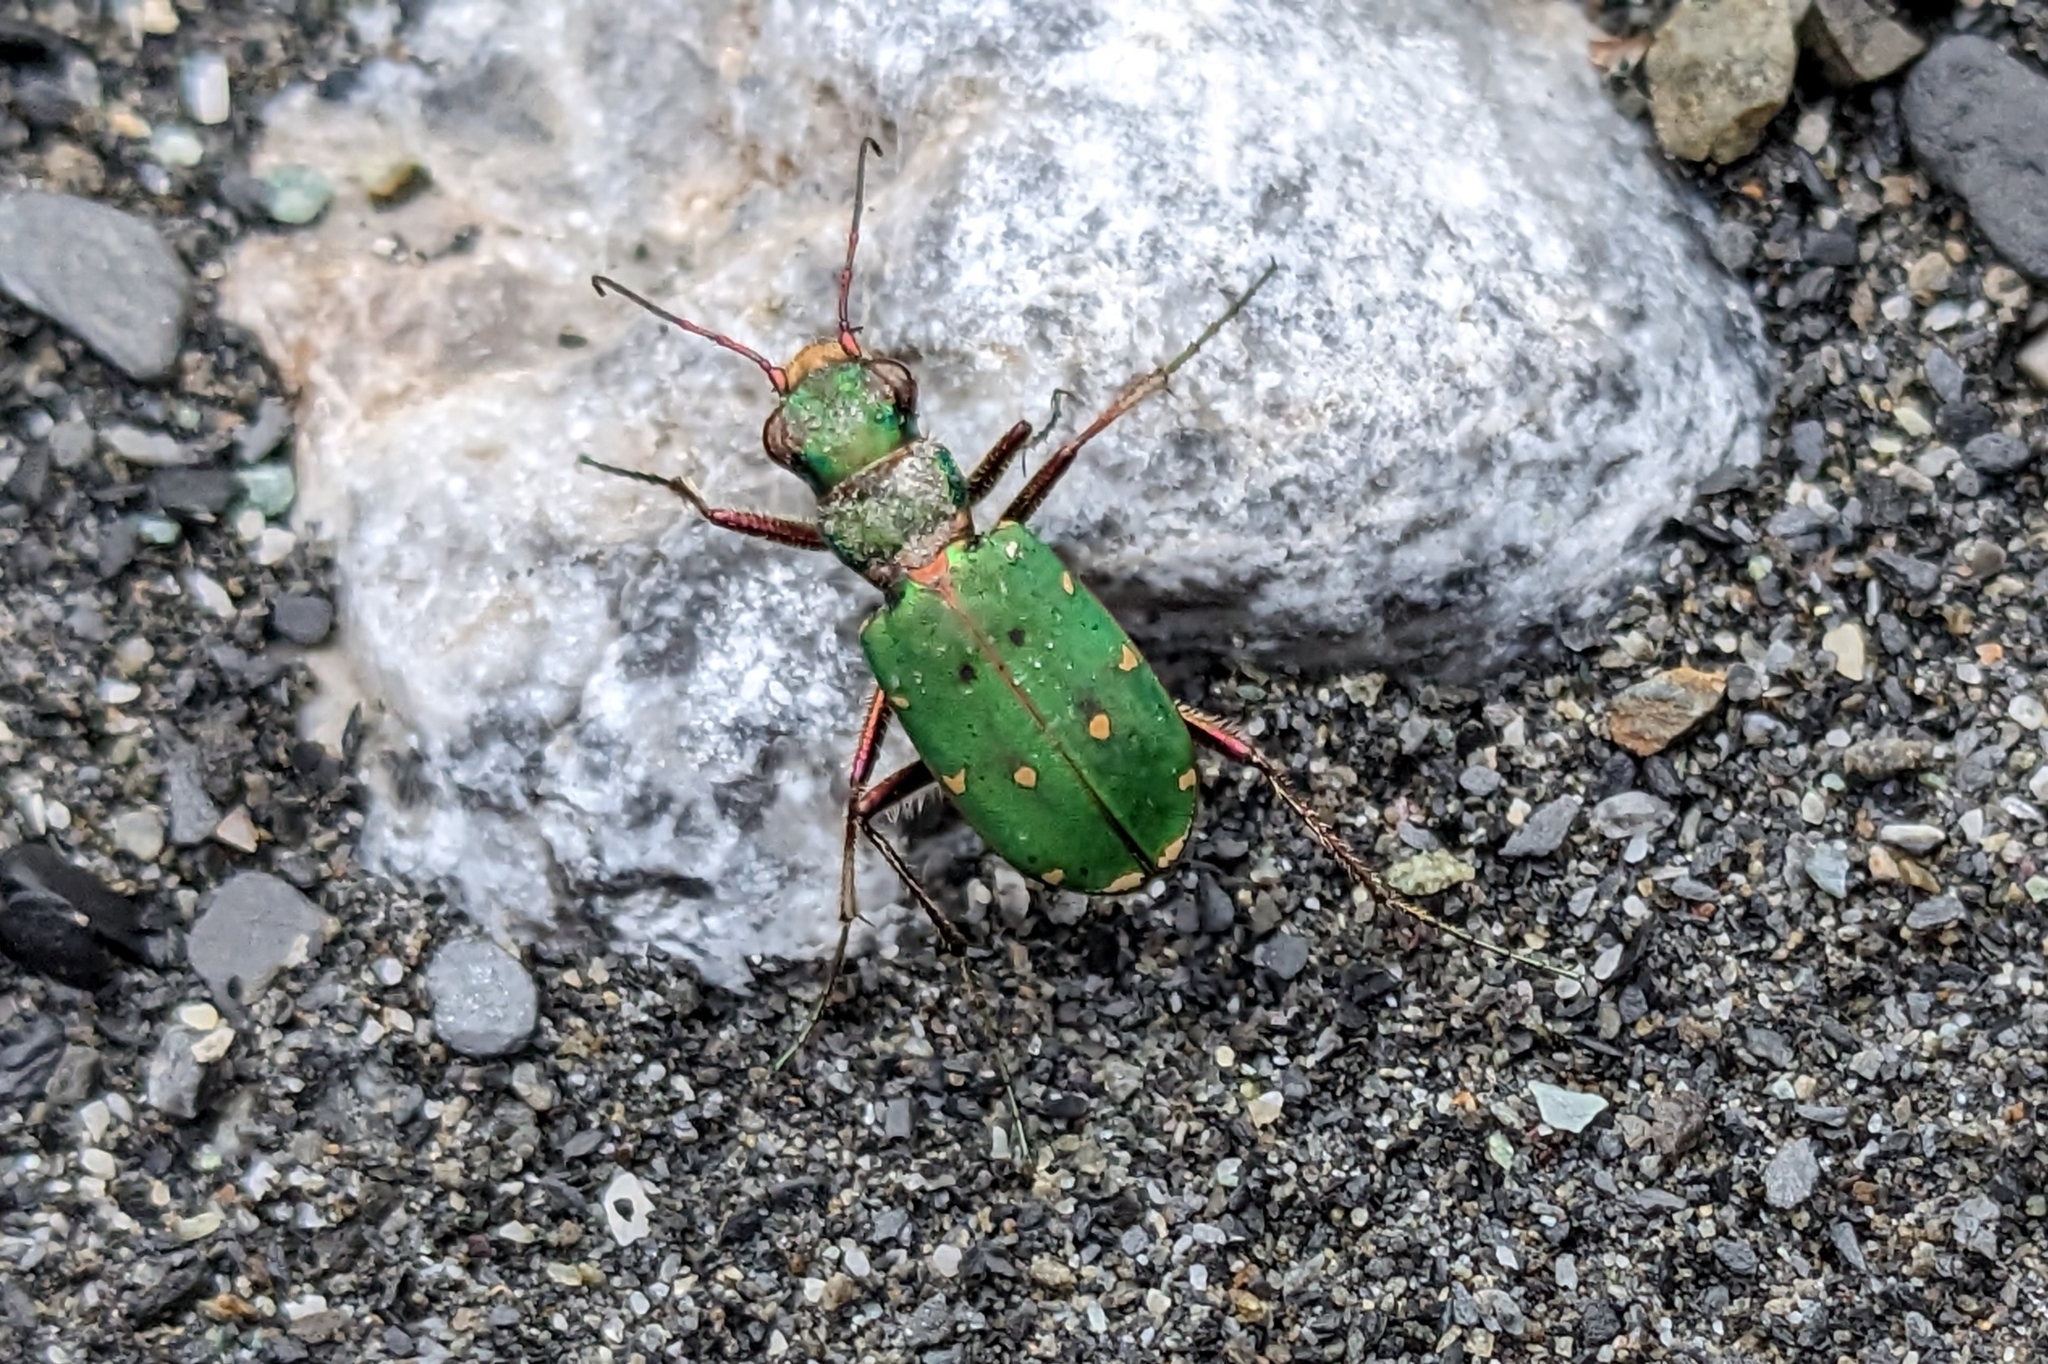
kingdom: Animalia
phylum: Arthropoda
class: Insecta
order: Coleoptera
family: Carabidae
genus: Cicindela
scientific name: Cicindela campestris
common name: Common tiger beetle
